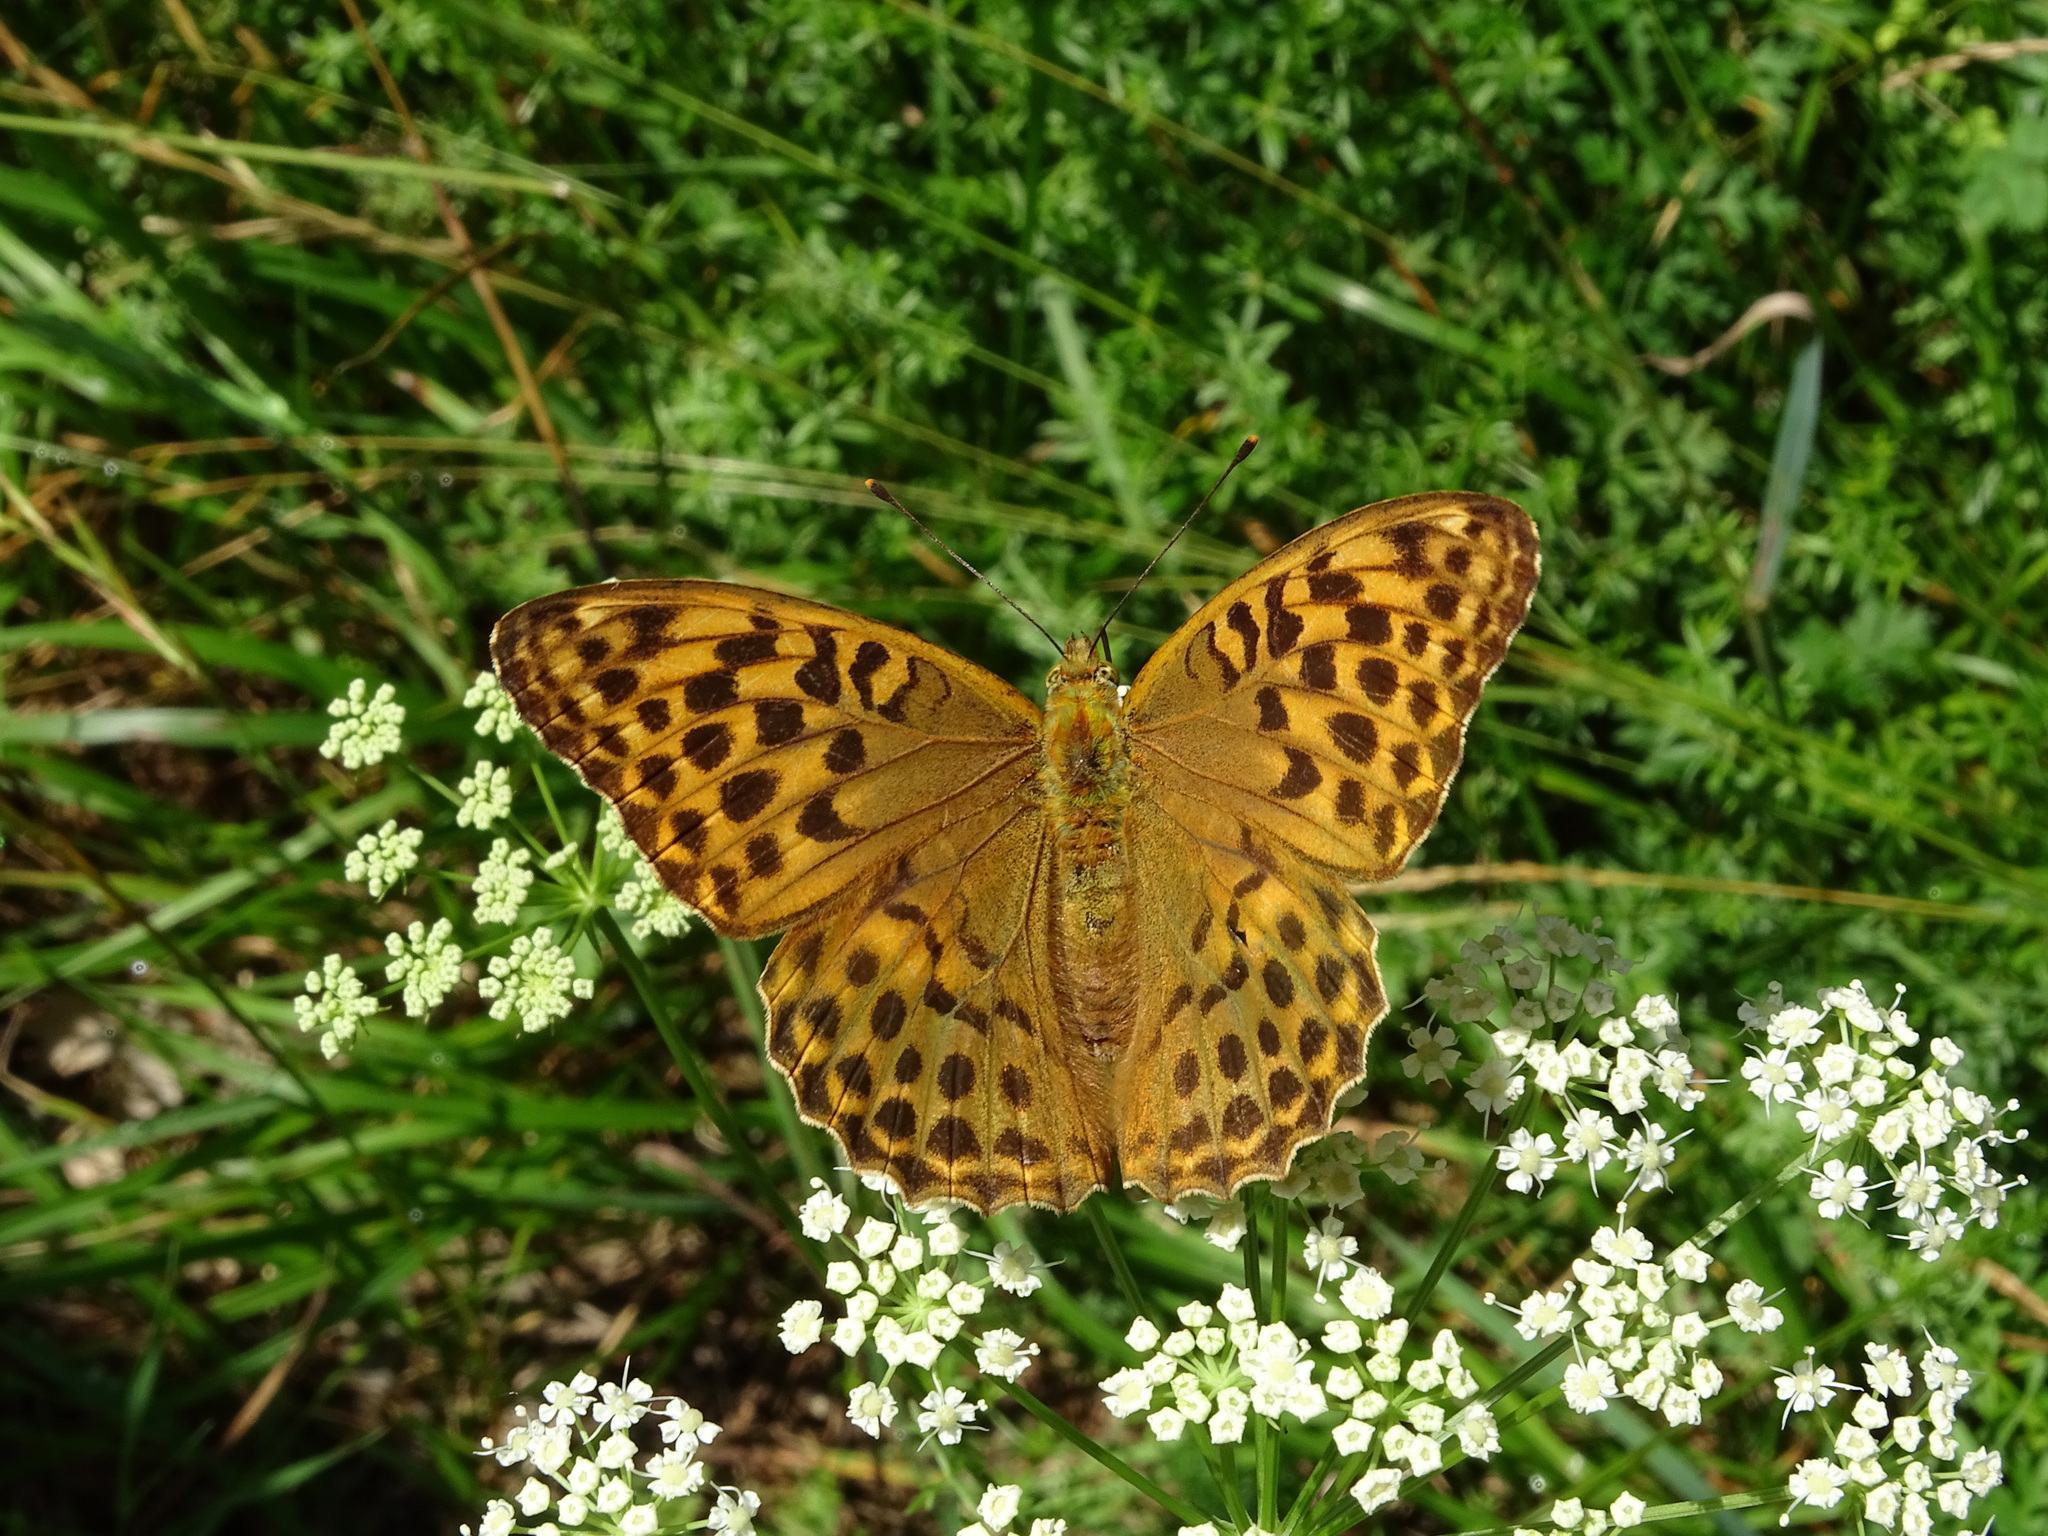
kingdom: Animalia
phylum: Arthropoda
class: Insecta
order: Lepidoptera
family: Nymphalidae
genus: Argynnis
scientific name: Argynnis paphia
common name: Silver-washed fritillary
